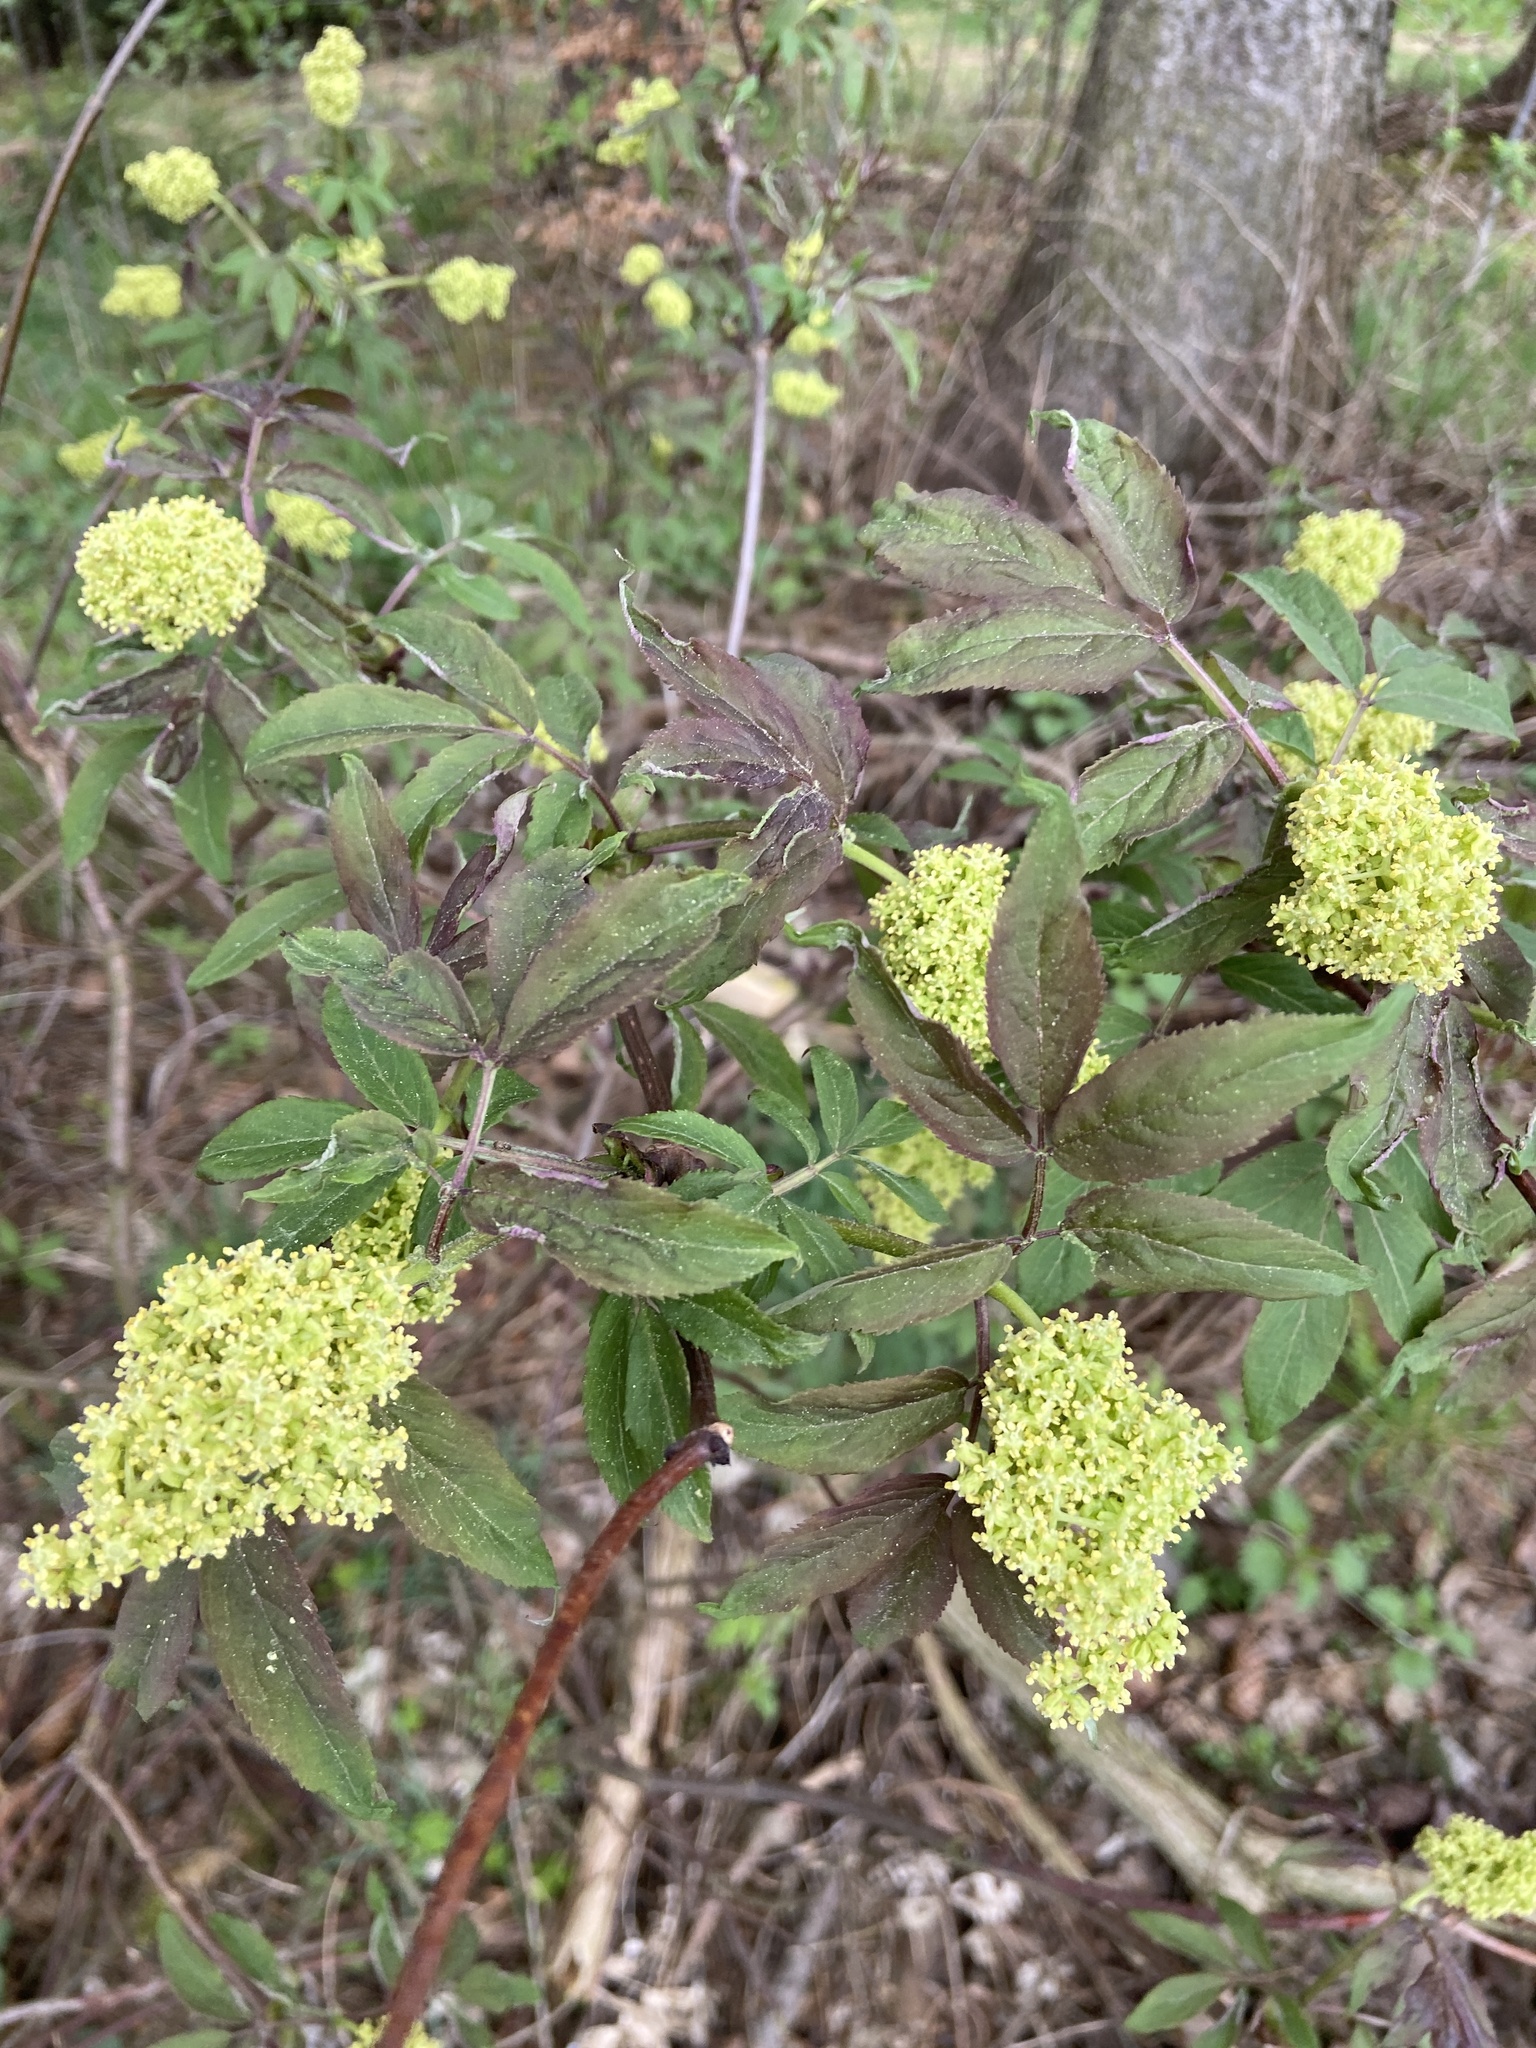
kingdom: Plantae
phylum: Tracheophyta
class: Magnoliopsida
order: Dipsacales
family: Viburnaceae
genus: Sambucus
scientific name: Sambucus racemosa
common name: Red-berried elder
